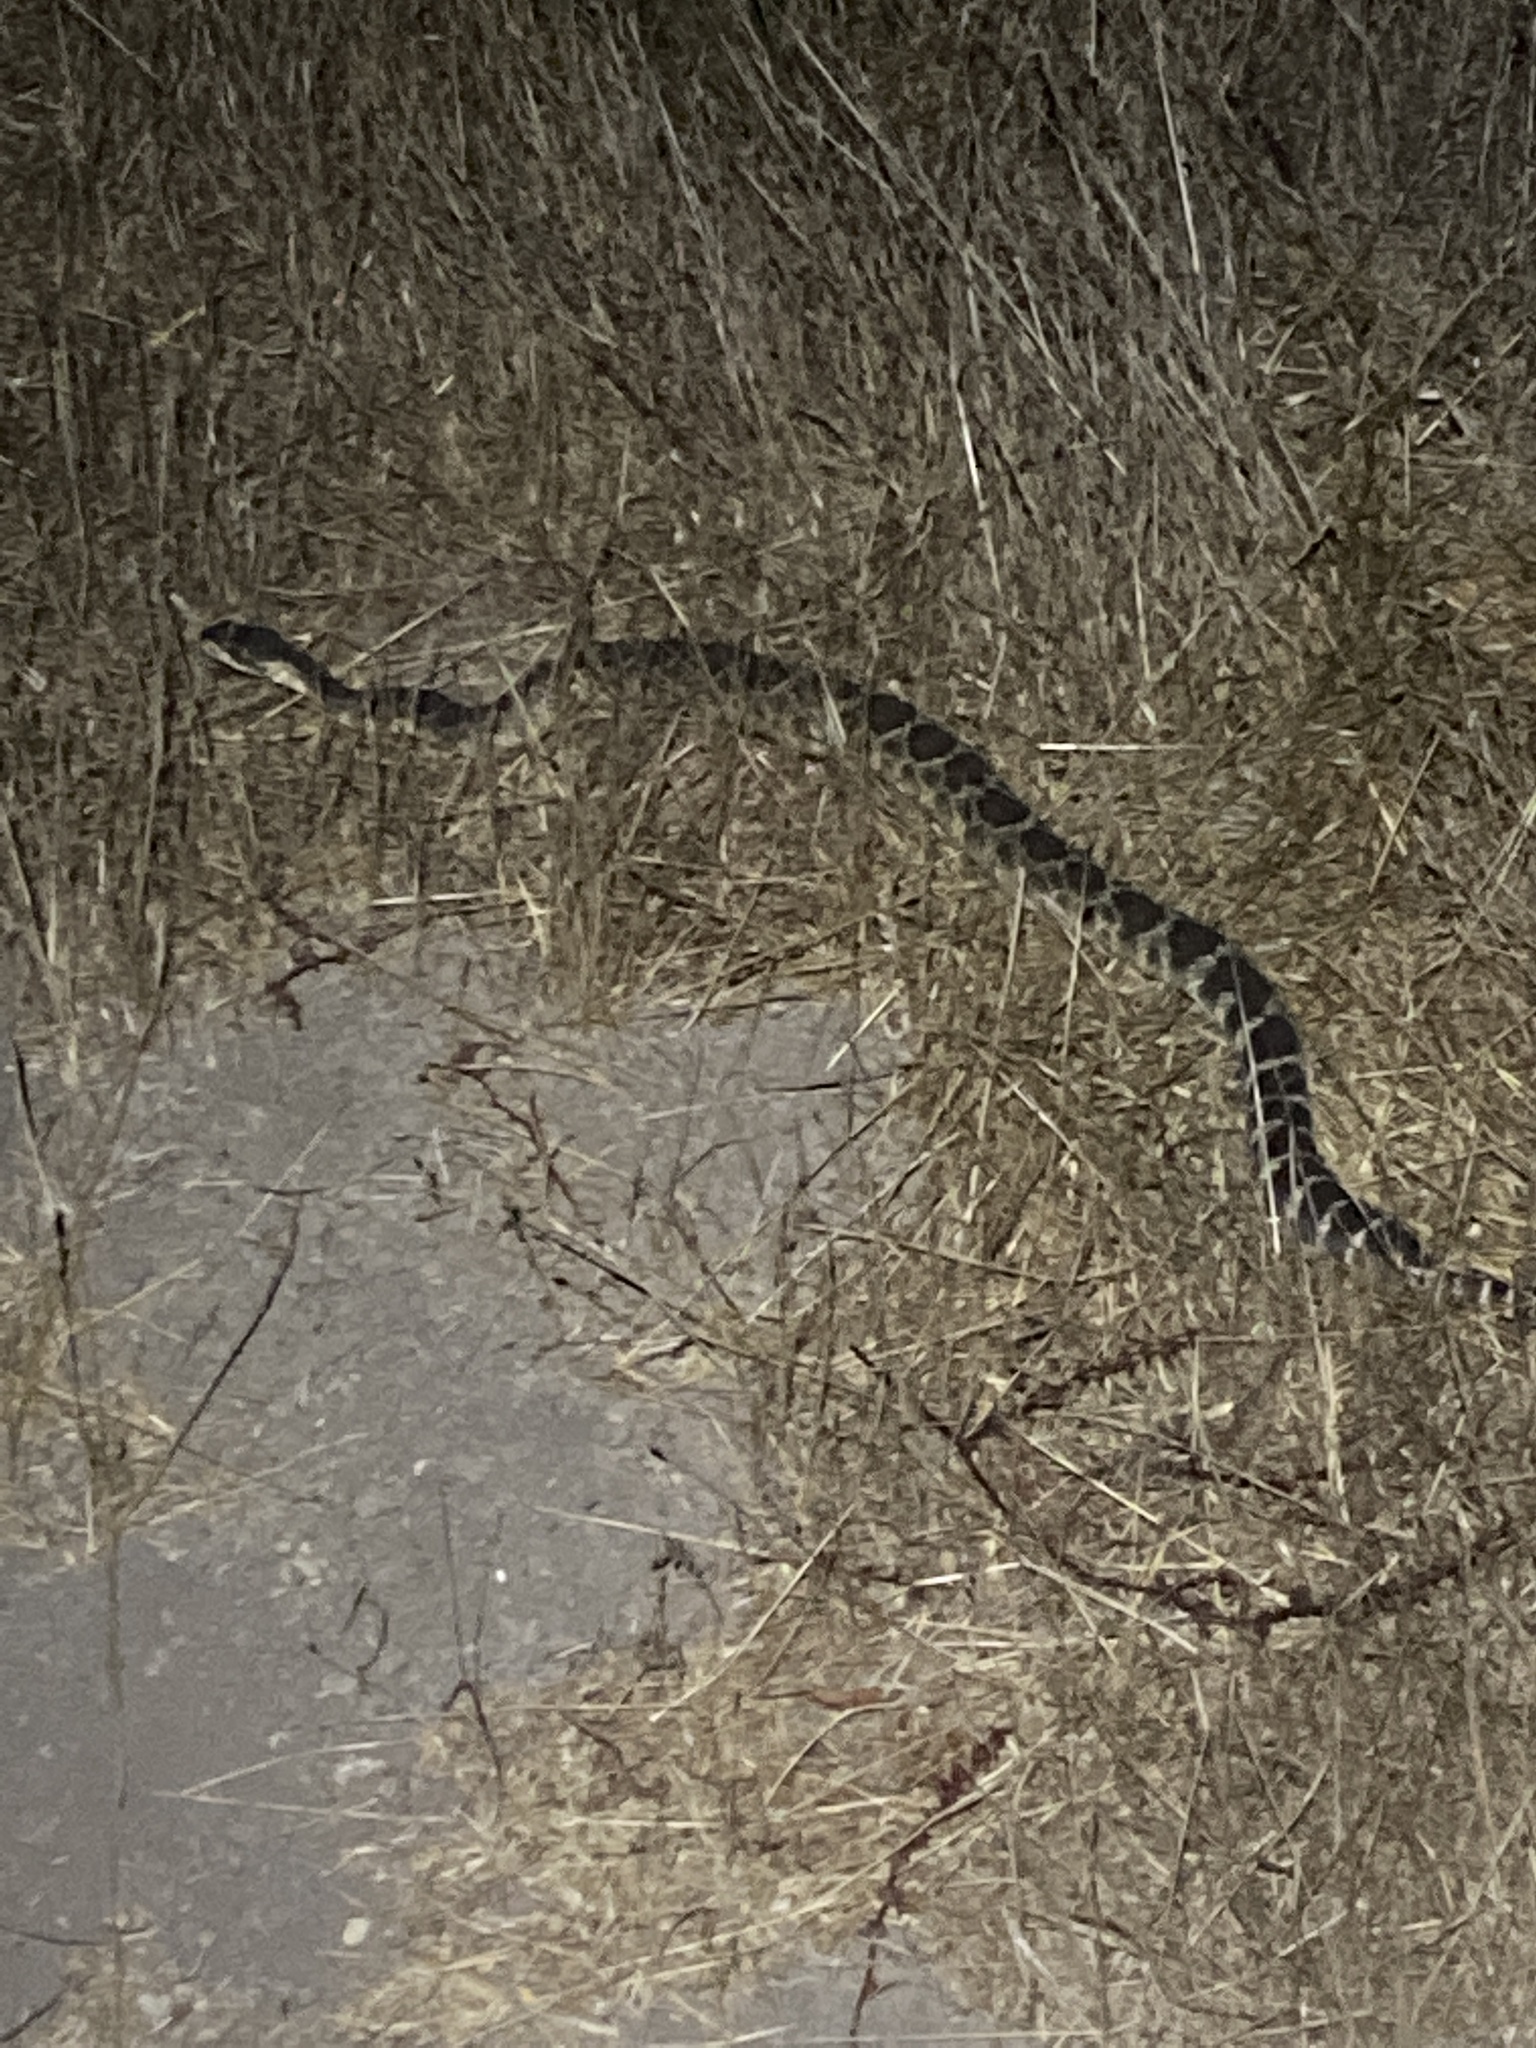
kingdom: Animalia
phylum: Chordata
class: Squamata
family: Viperidae
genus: Crotalus
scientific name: Crotalus oreganus
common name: Abyssus
